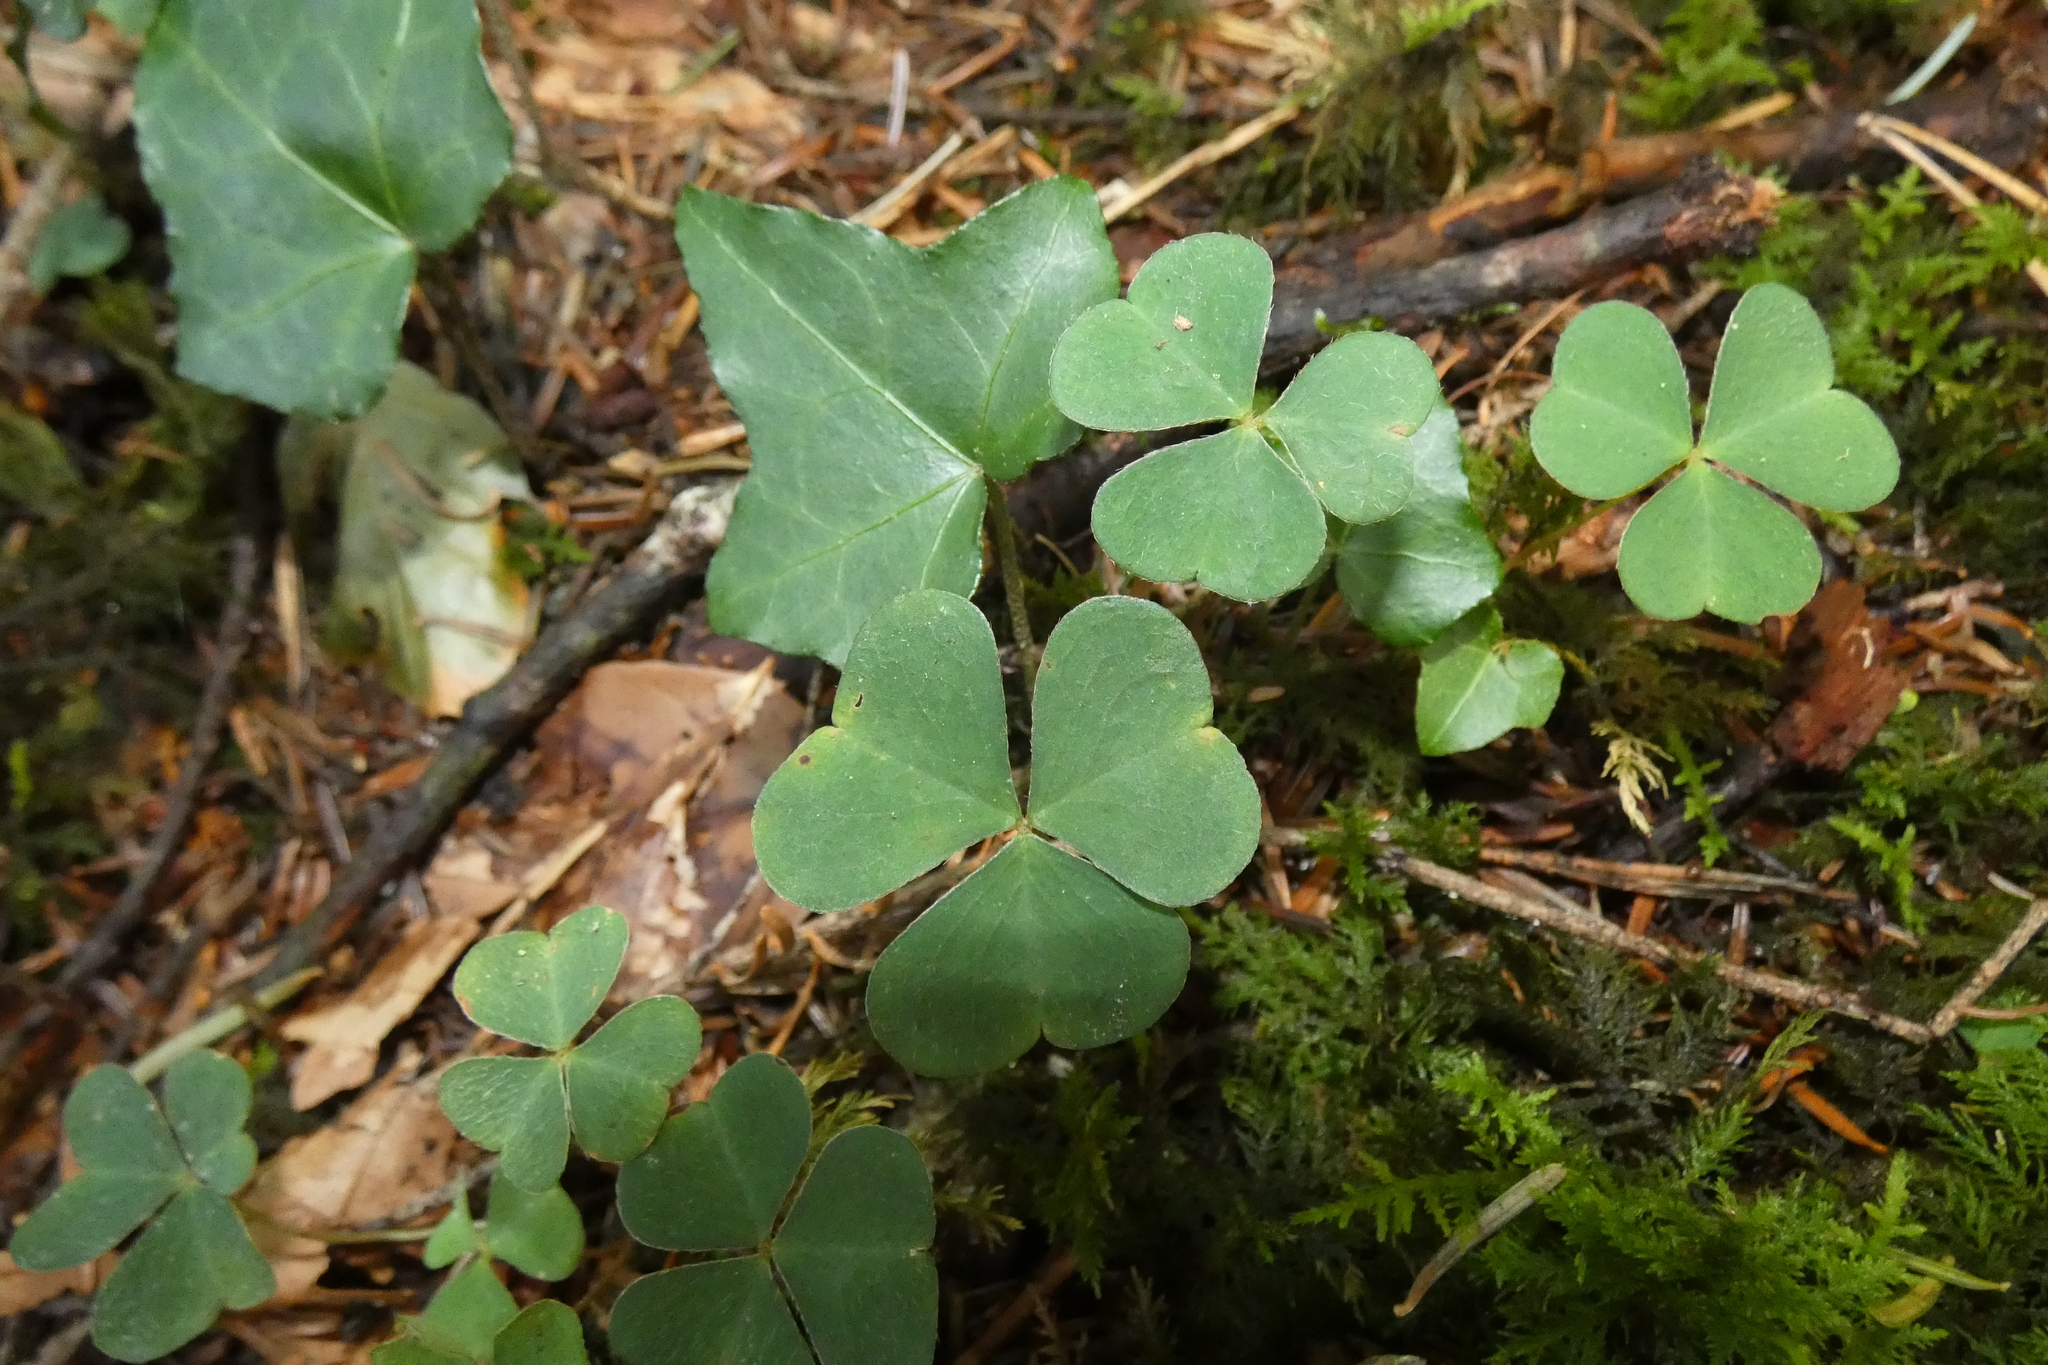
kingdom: Plantae
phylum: Tracheophyta
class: Magnoliopsida
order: Oxalidales
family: Oxalidaceae
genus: Oxalis
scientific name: Oxalis acetosella
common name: Wood-sorrel
